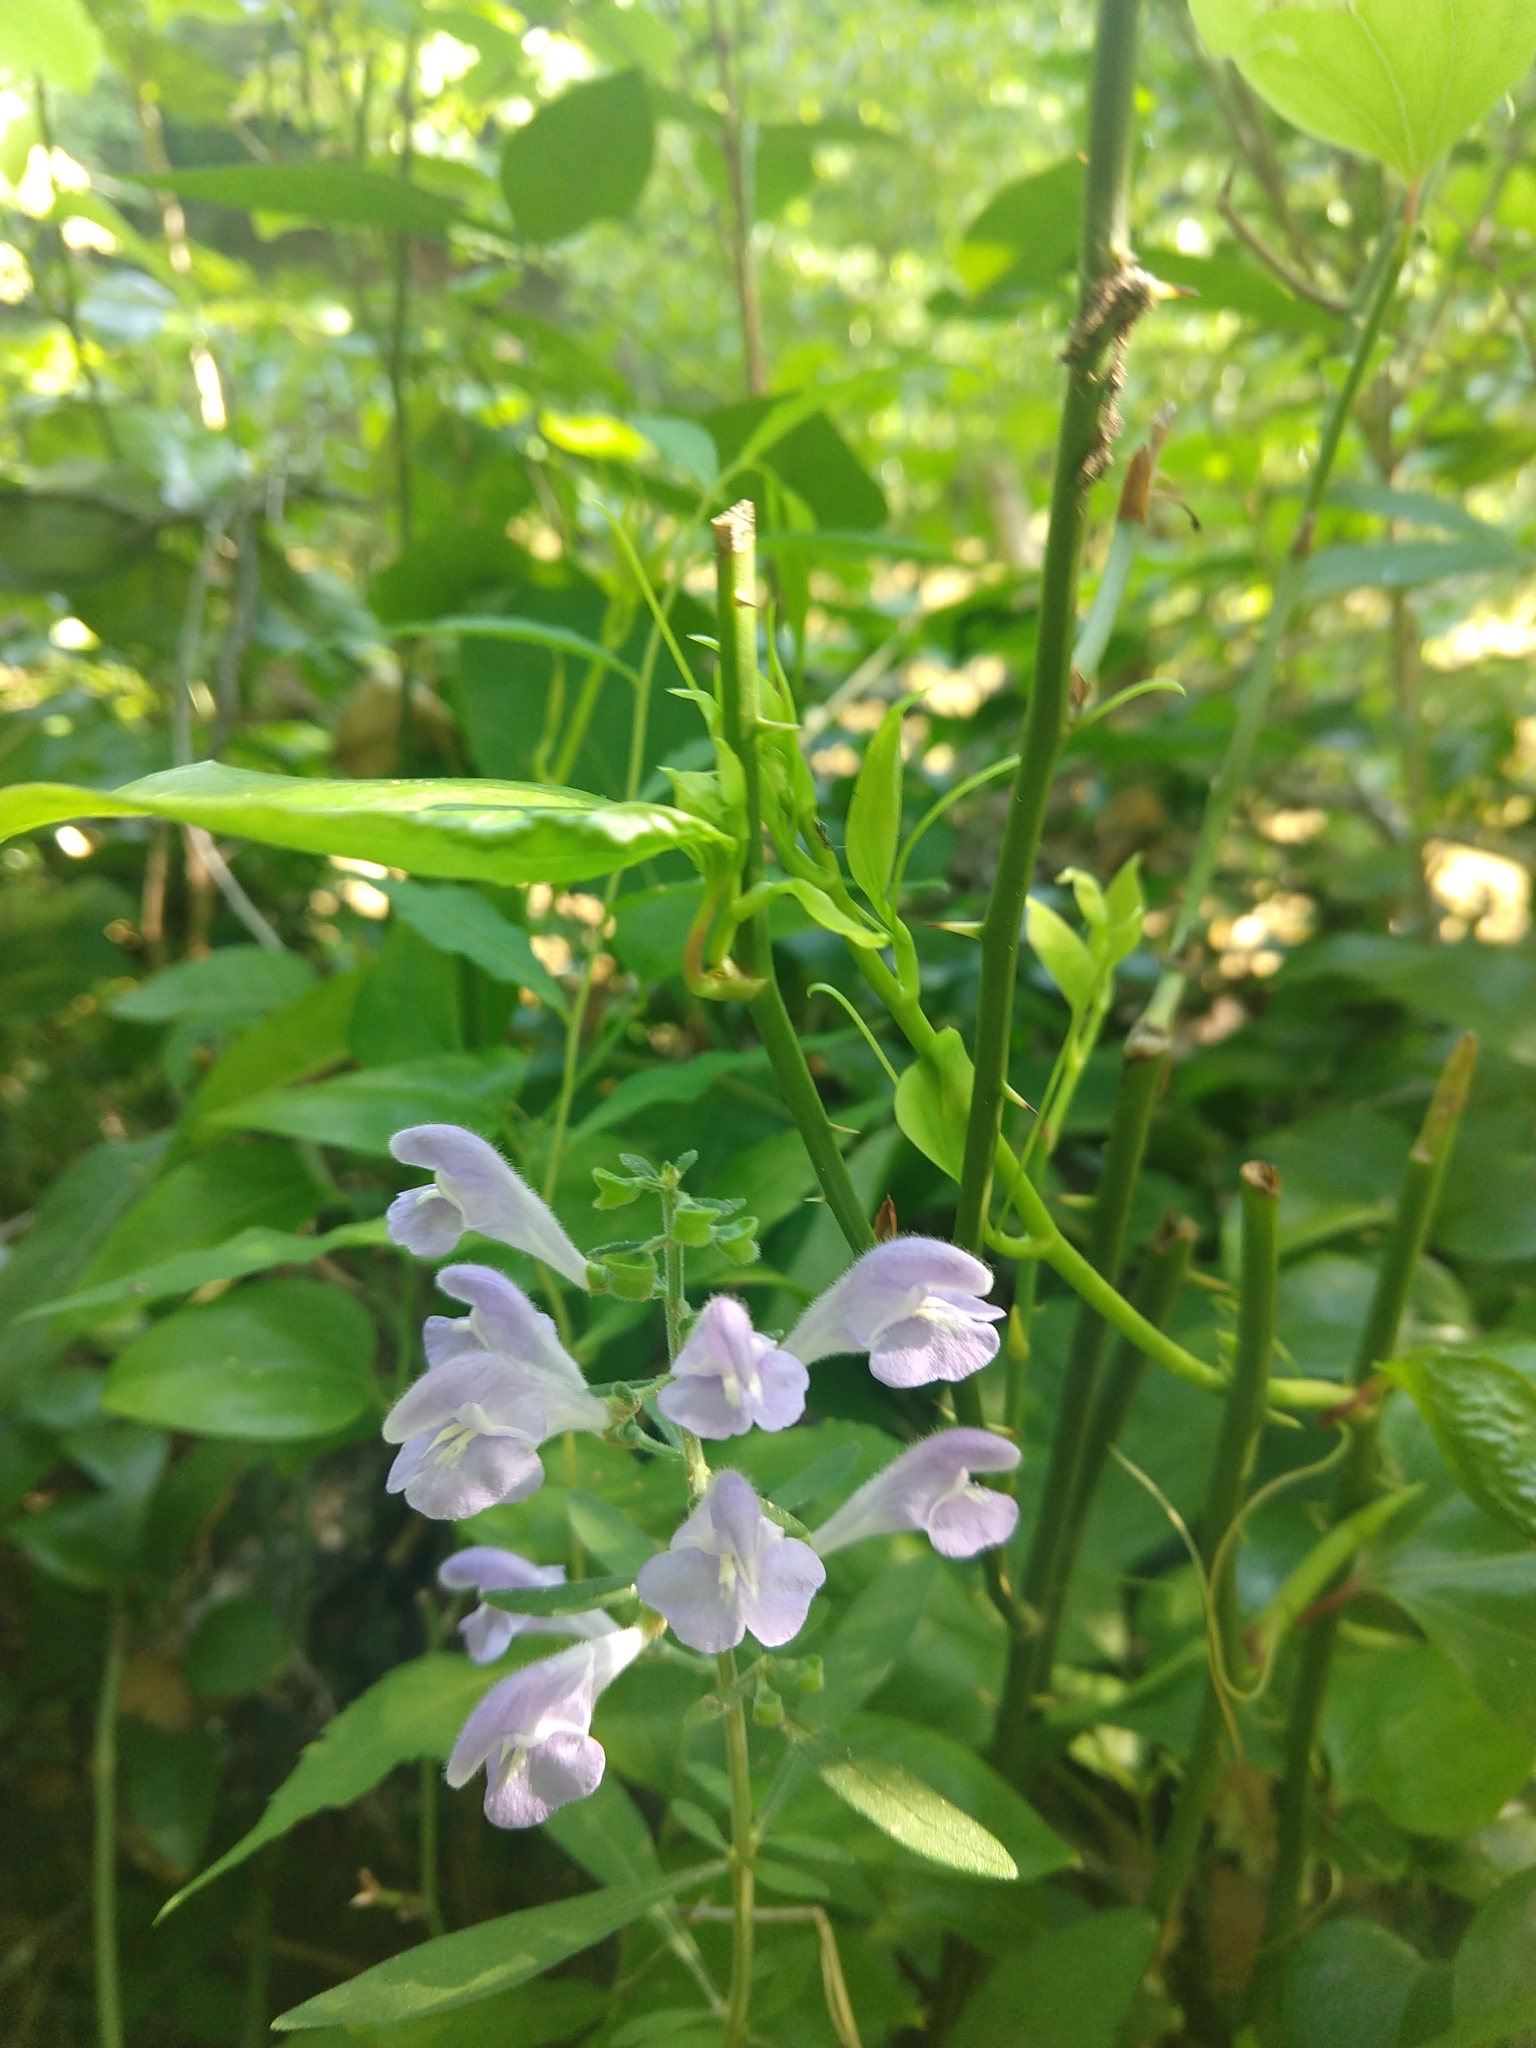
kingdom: Plantae
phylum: Tracheophyta
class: Magnoliopsida
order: Lamiales
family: Lamiaceae
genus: Scutellaria
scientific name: Scutellaria integrifolia
